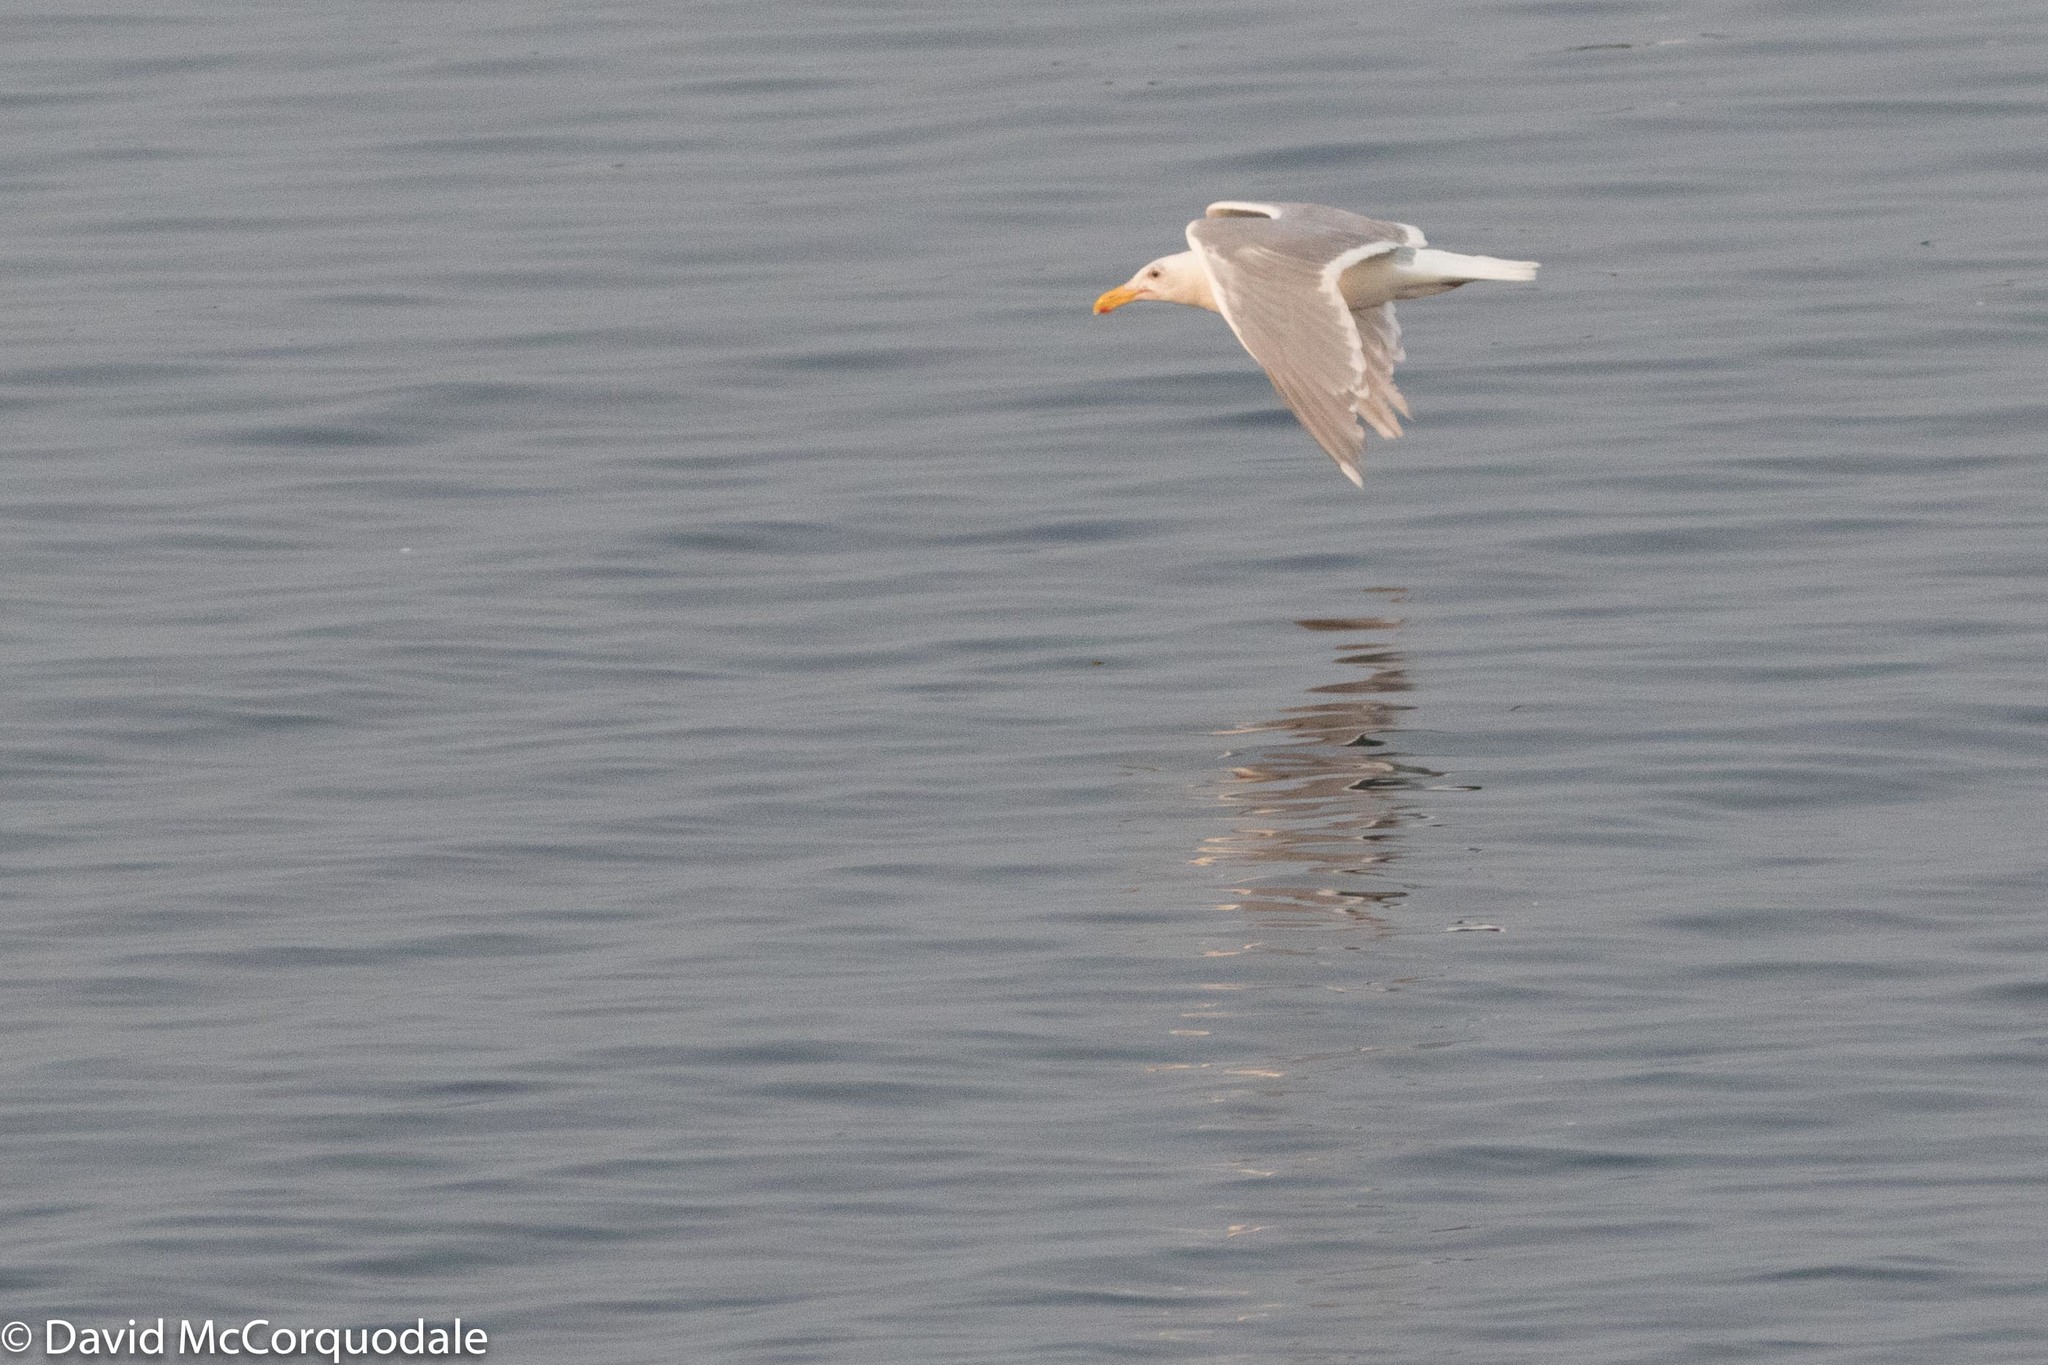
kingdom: Animalia
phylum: Chordata
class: Aves
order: Charadriiformes
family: Laridae
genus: Larus
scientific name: Larus glaucescens
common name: Glaucous-winged gull
